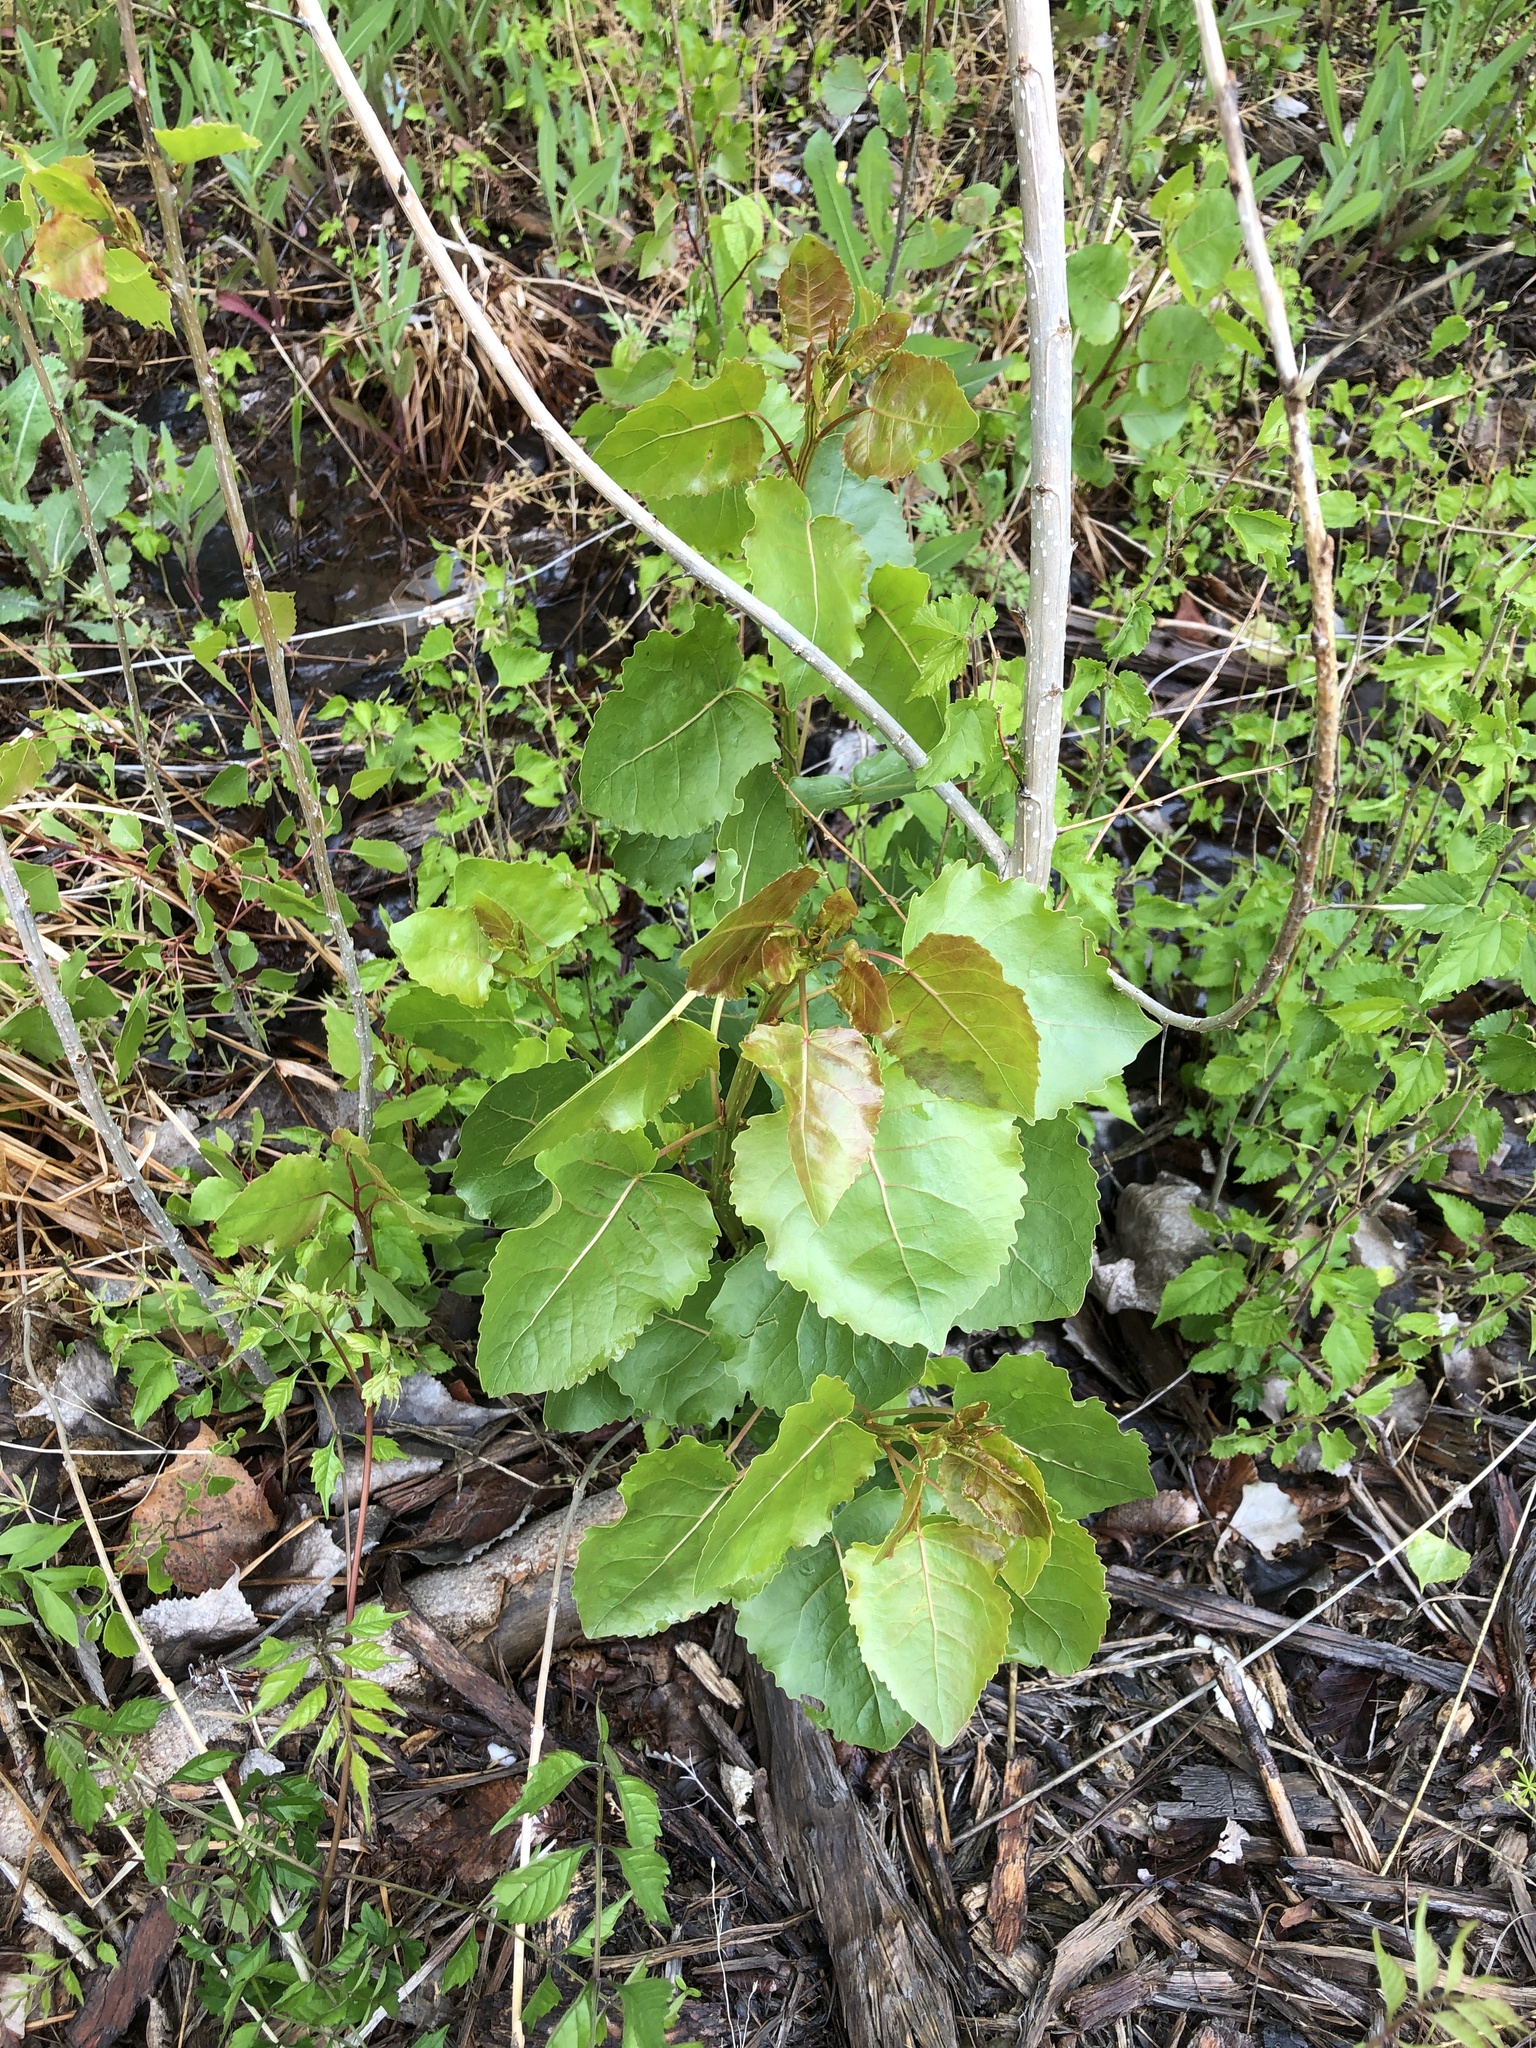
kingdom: Plantae
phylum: Tracheophyta
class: Magnoliopsida
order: Malpighiales
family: Salicaceae
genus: Populus
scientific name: Populus deltoides
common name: Eastern cottonwood
